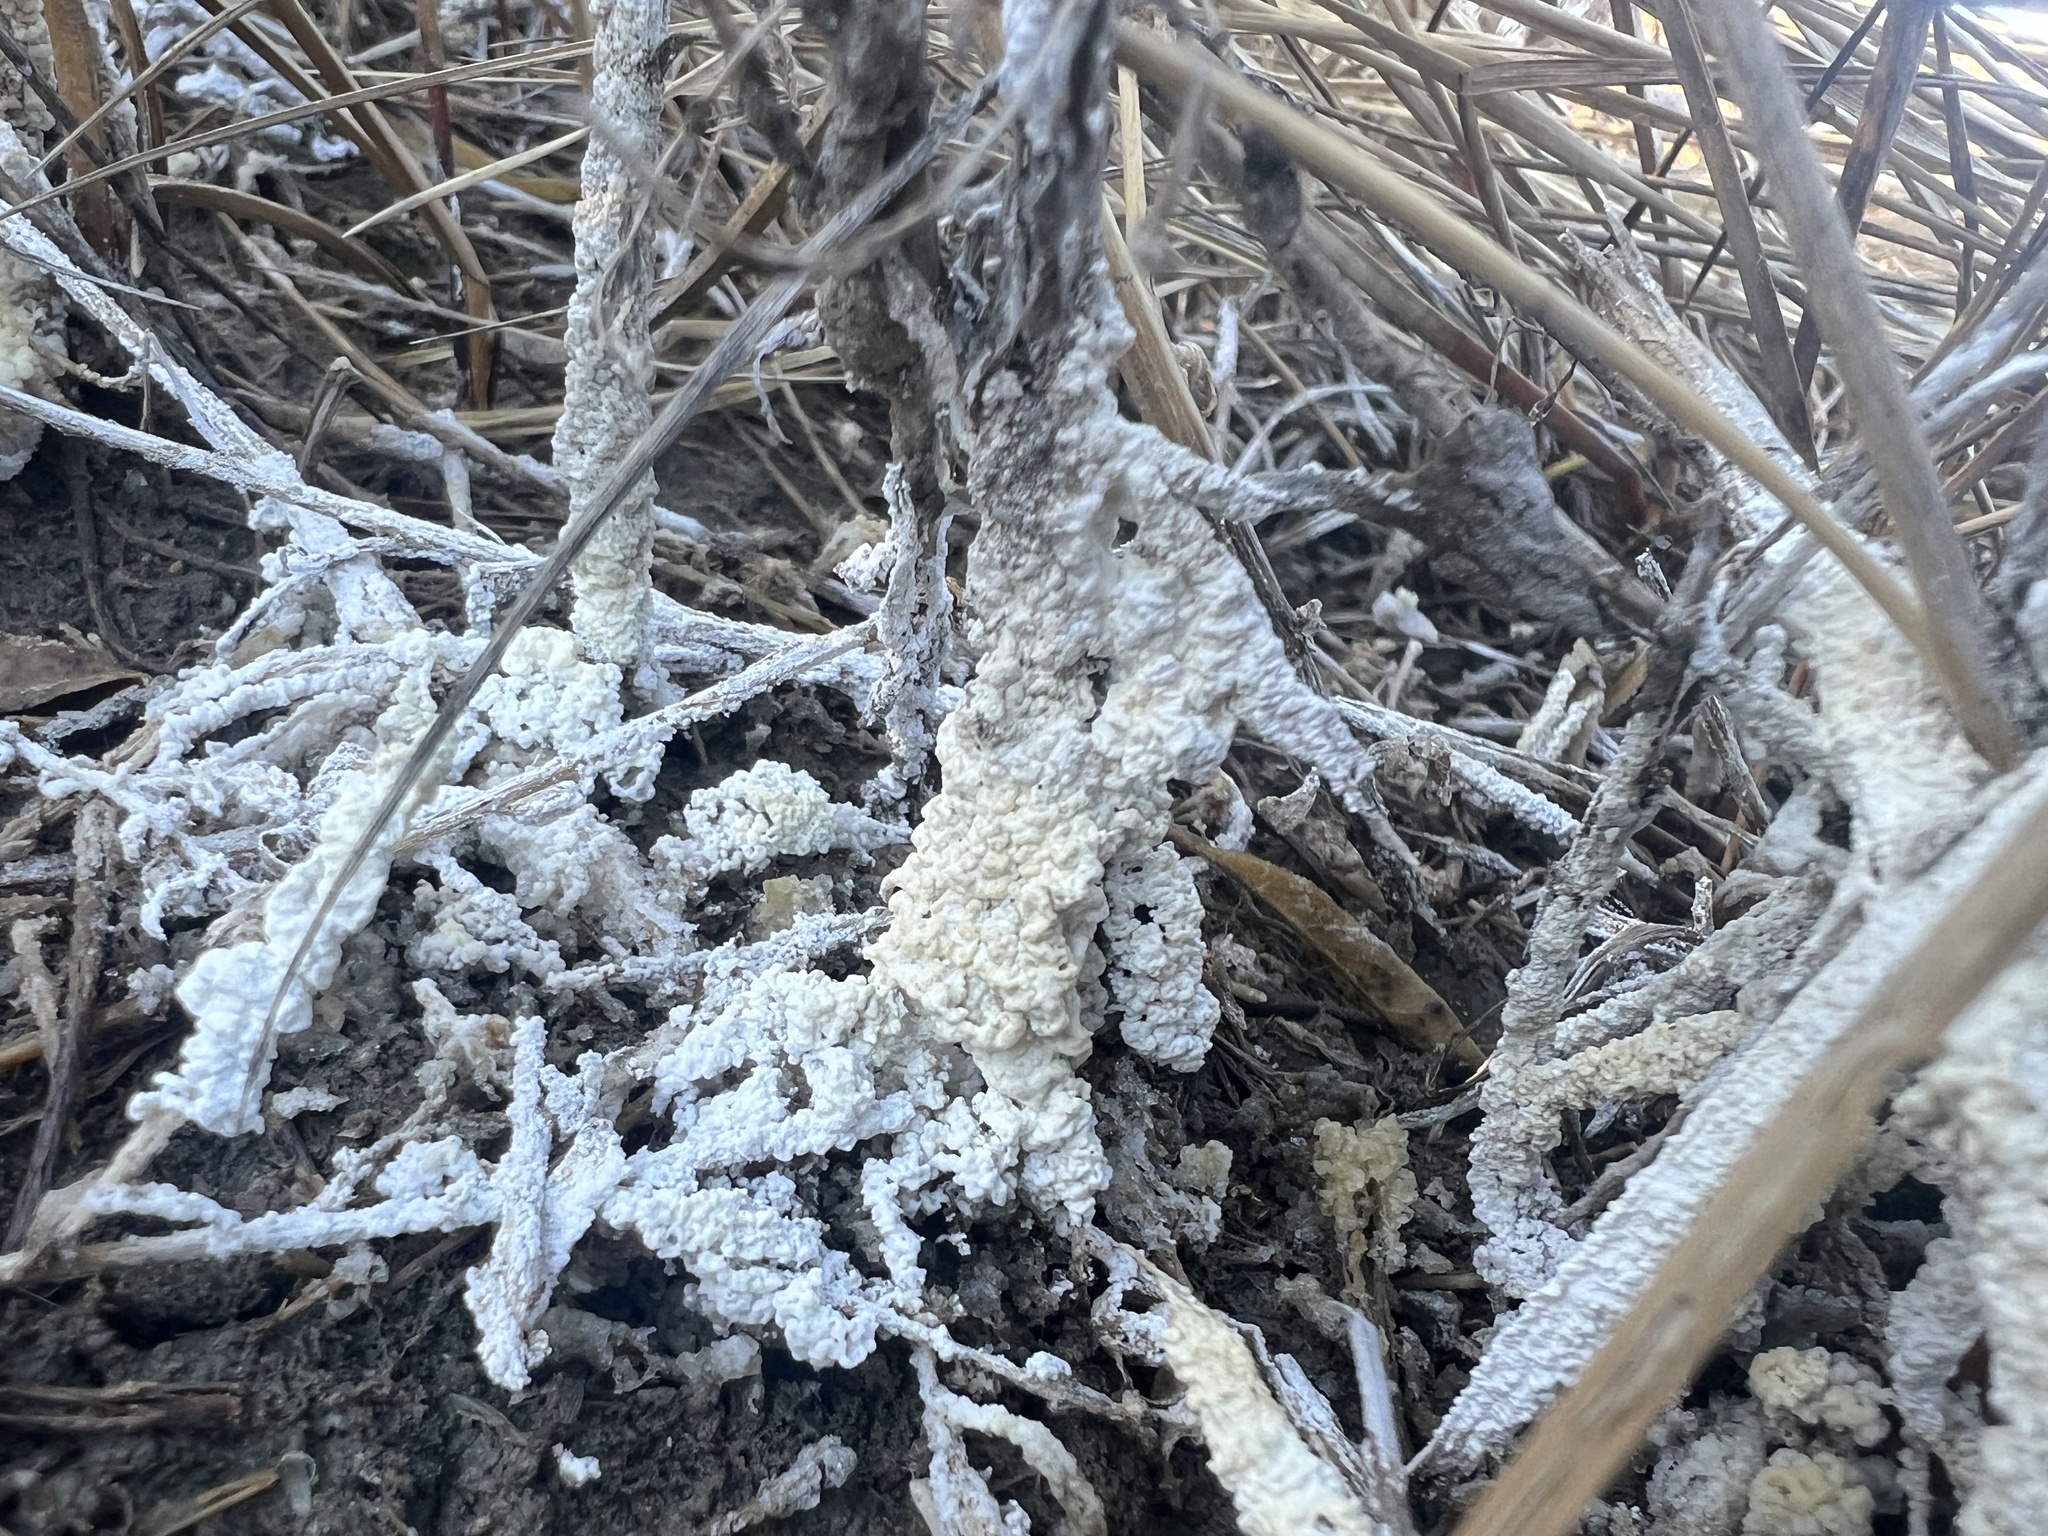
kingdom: Protozoa
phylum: Mycetozoa
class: Myxomycetes
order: Physarales
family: Physaraceae
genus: Didymium
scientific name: Didymium
